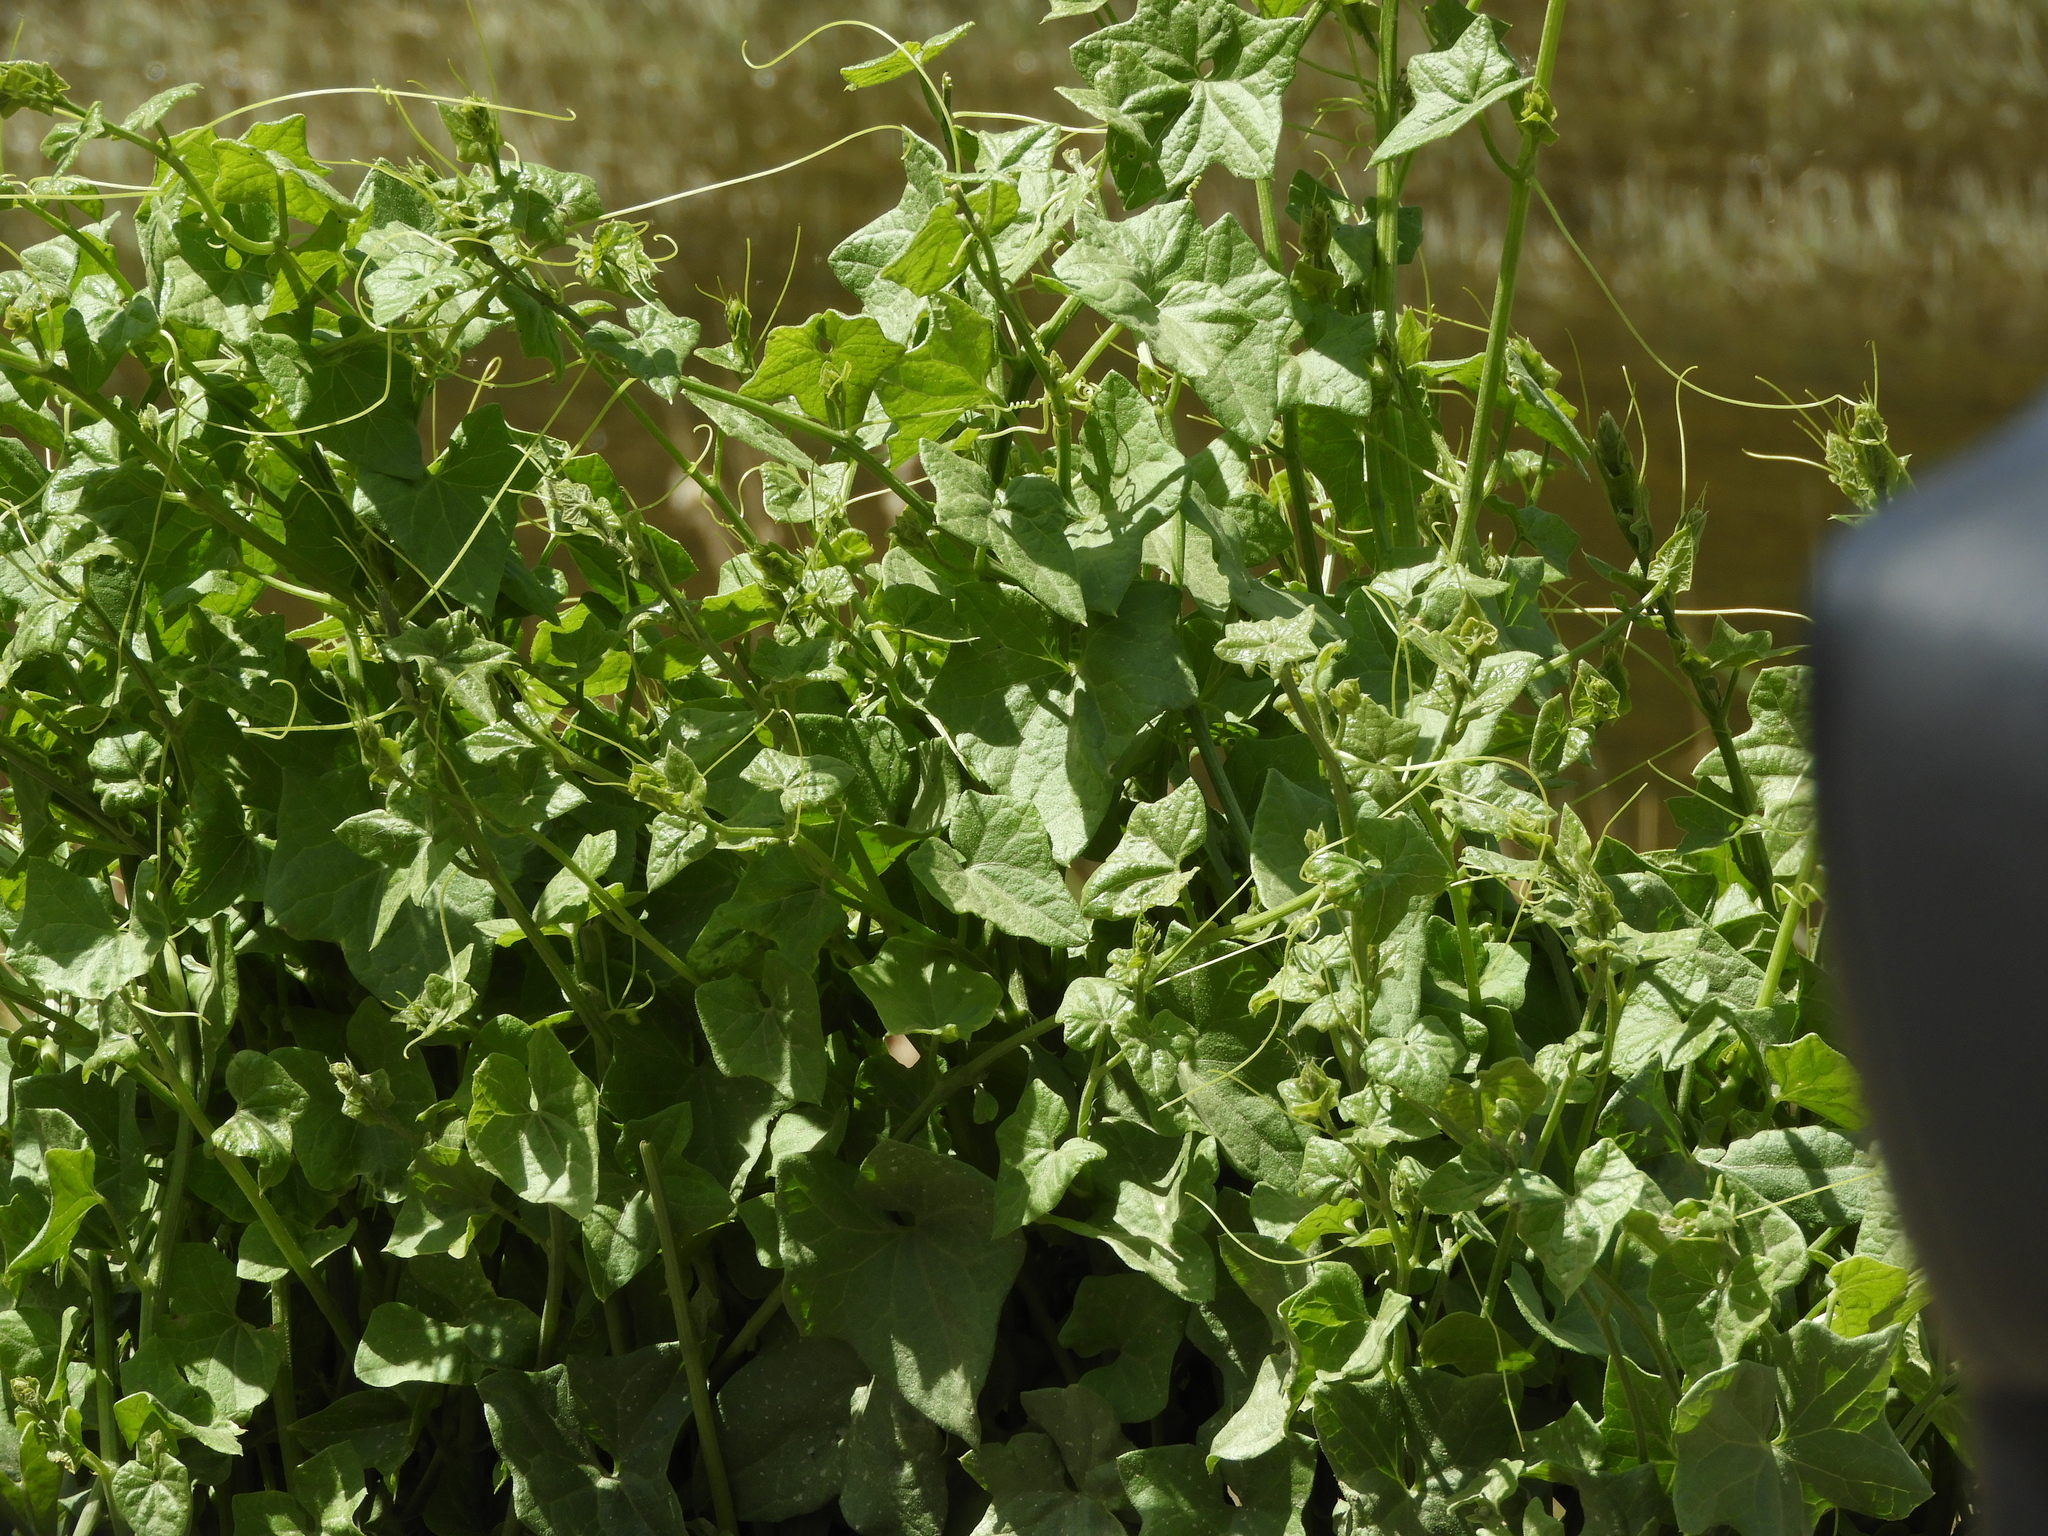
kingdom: Plantae
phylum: Tracheophyta
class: Magnoliopsida
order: Cucurbitales
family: Cucurbitaceae
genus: Marah
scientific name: Marah fabacea
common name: California manroot
